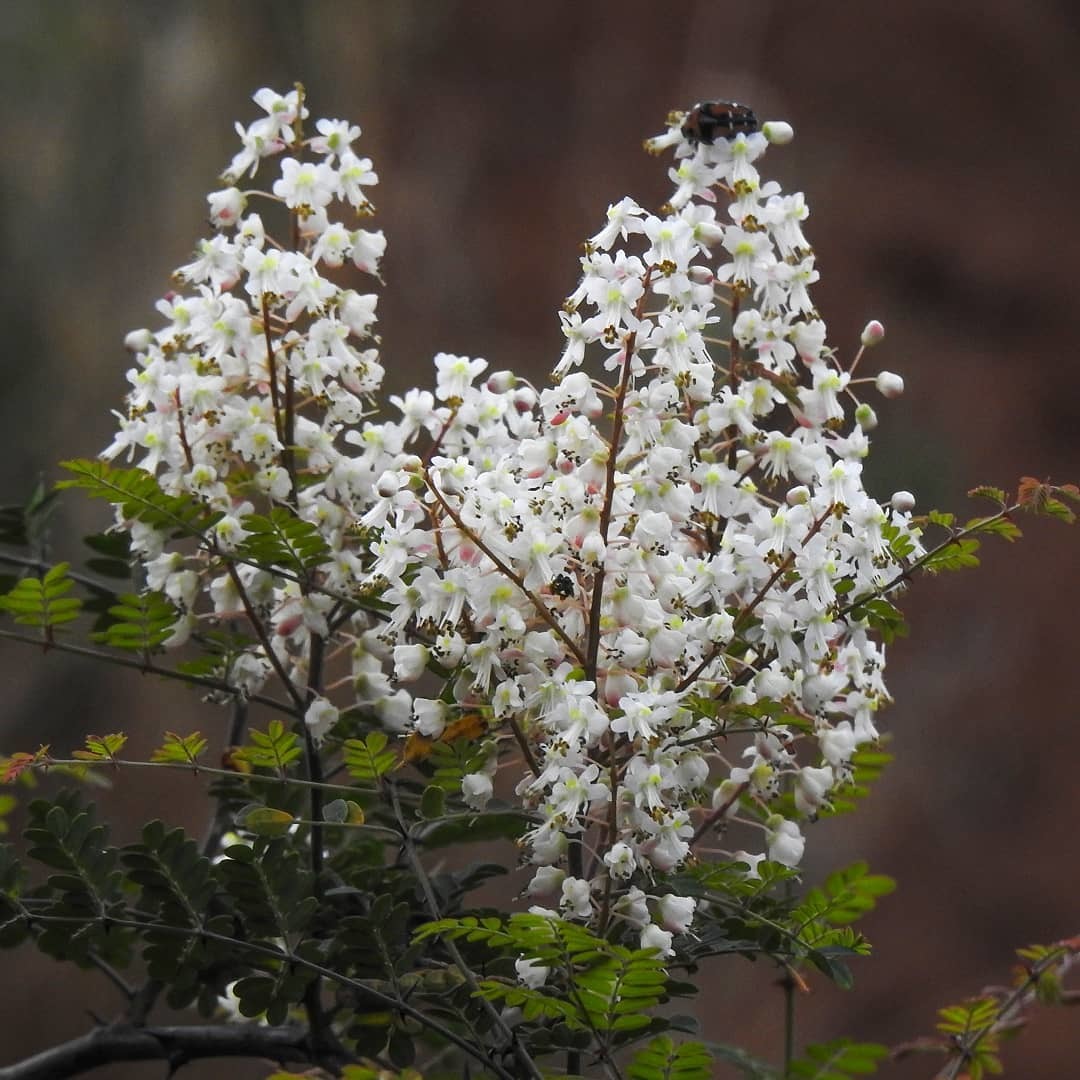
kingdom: Plantae
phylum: Tracheophyta
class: Magnoliopsida
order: Fabales
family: Fabaceae
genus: Pterolobium
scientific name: Pterolobium hexapetalum
